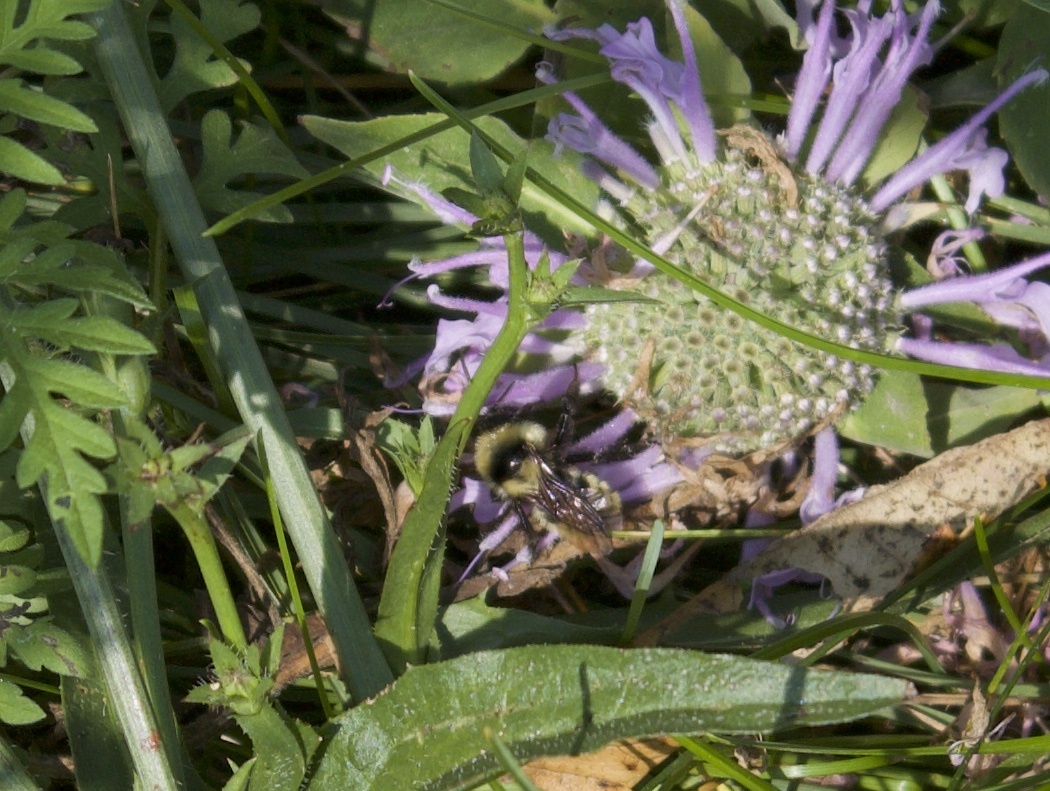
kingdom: Animalia
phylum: Arthropoda
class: Insecta
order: Hymenoptera
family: Apidae
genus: Bombus
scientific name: Bombus fervidus
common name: Yellow bumble bee
